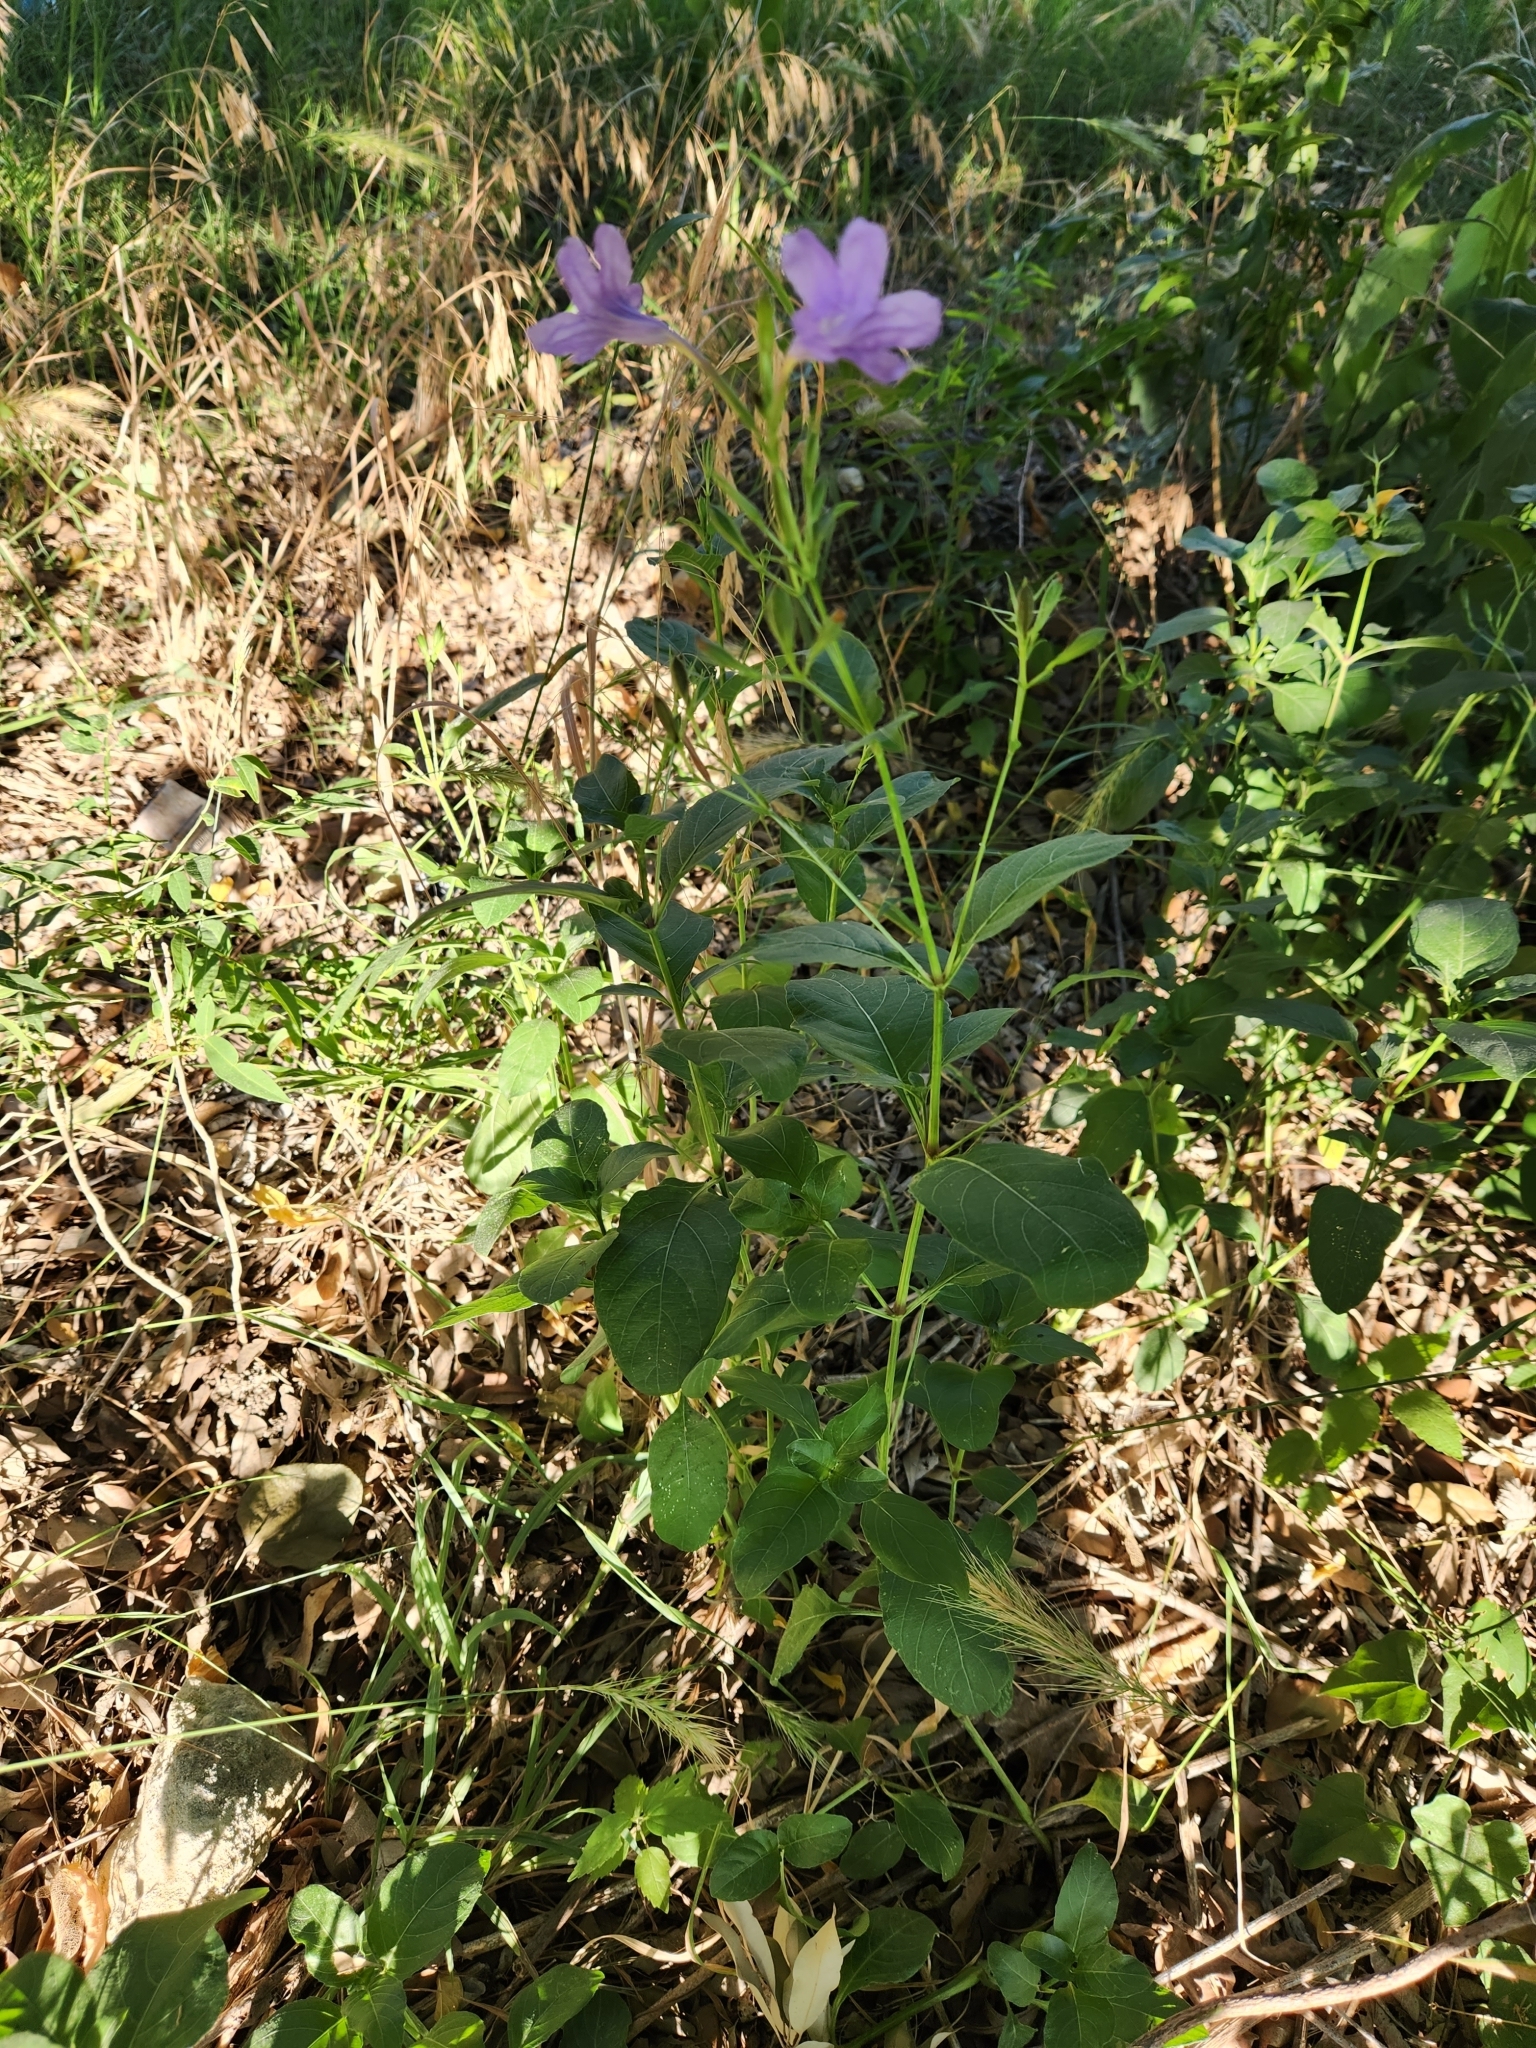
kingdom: Plantae
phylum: Tracheophyta
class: Magnoliopsida
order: Lamiales
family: Acanthaceae
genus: Ruellia
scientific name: Ruellia ciliatiflora
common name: Hairyflower wild petunia
